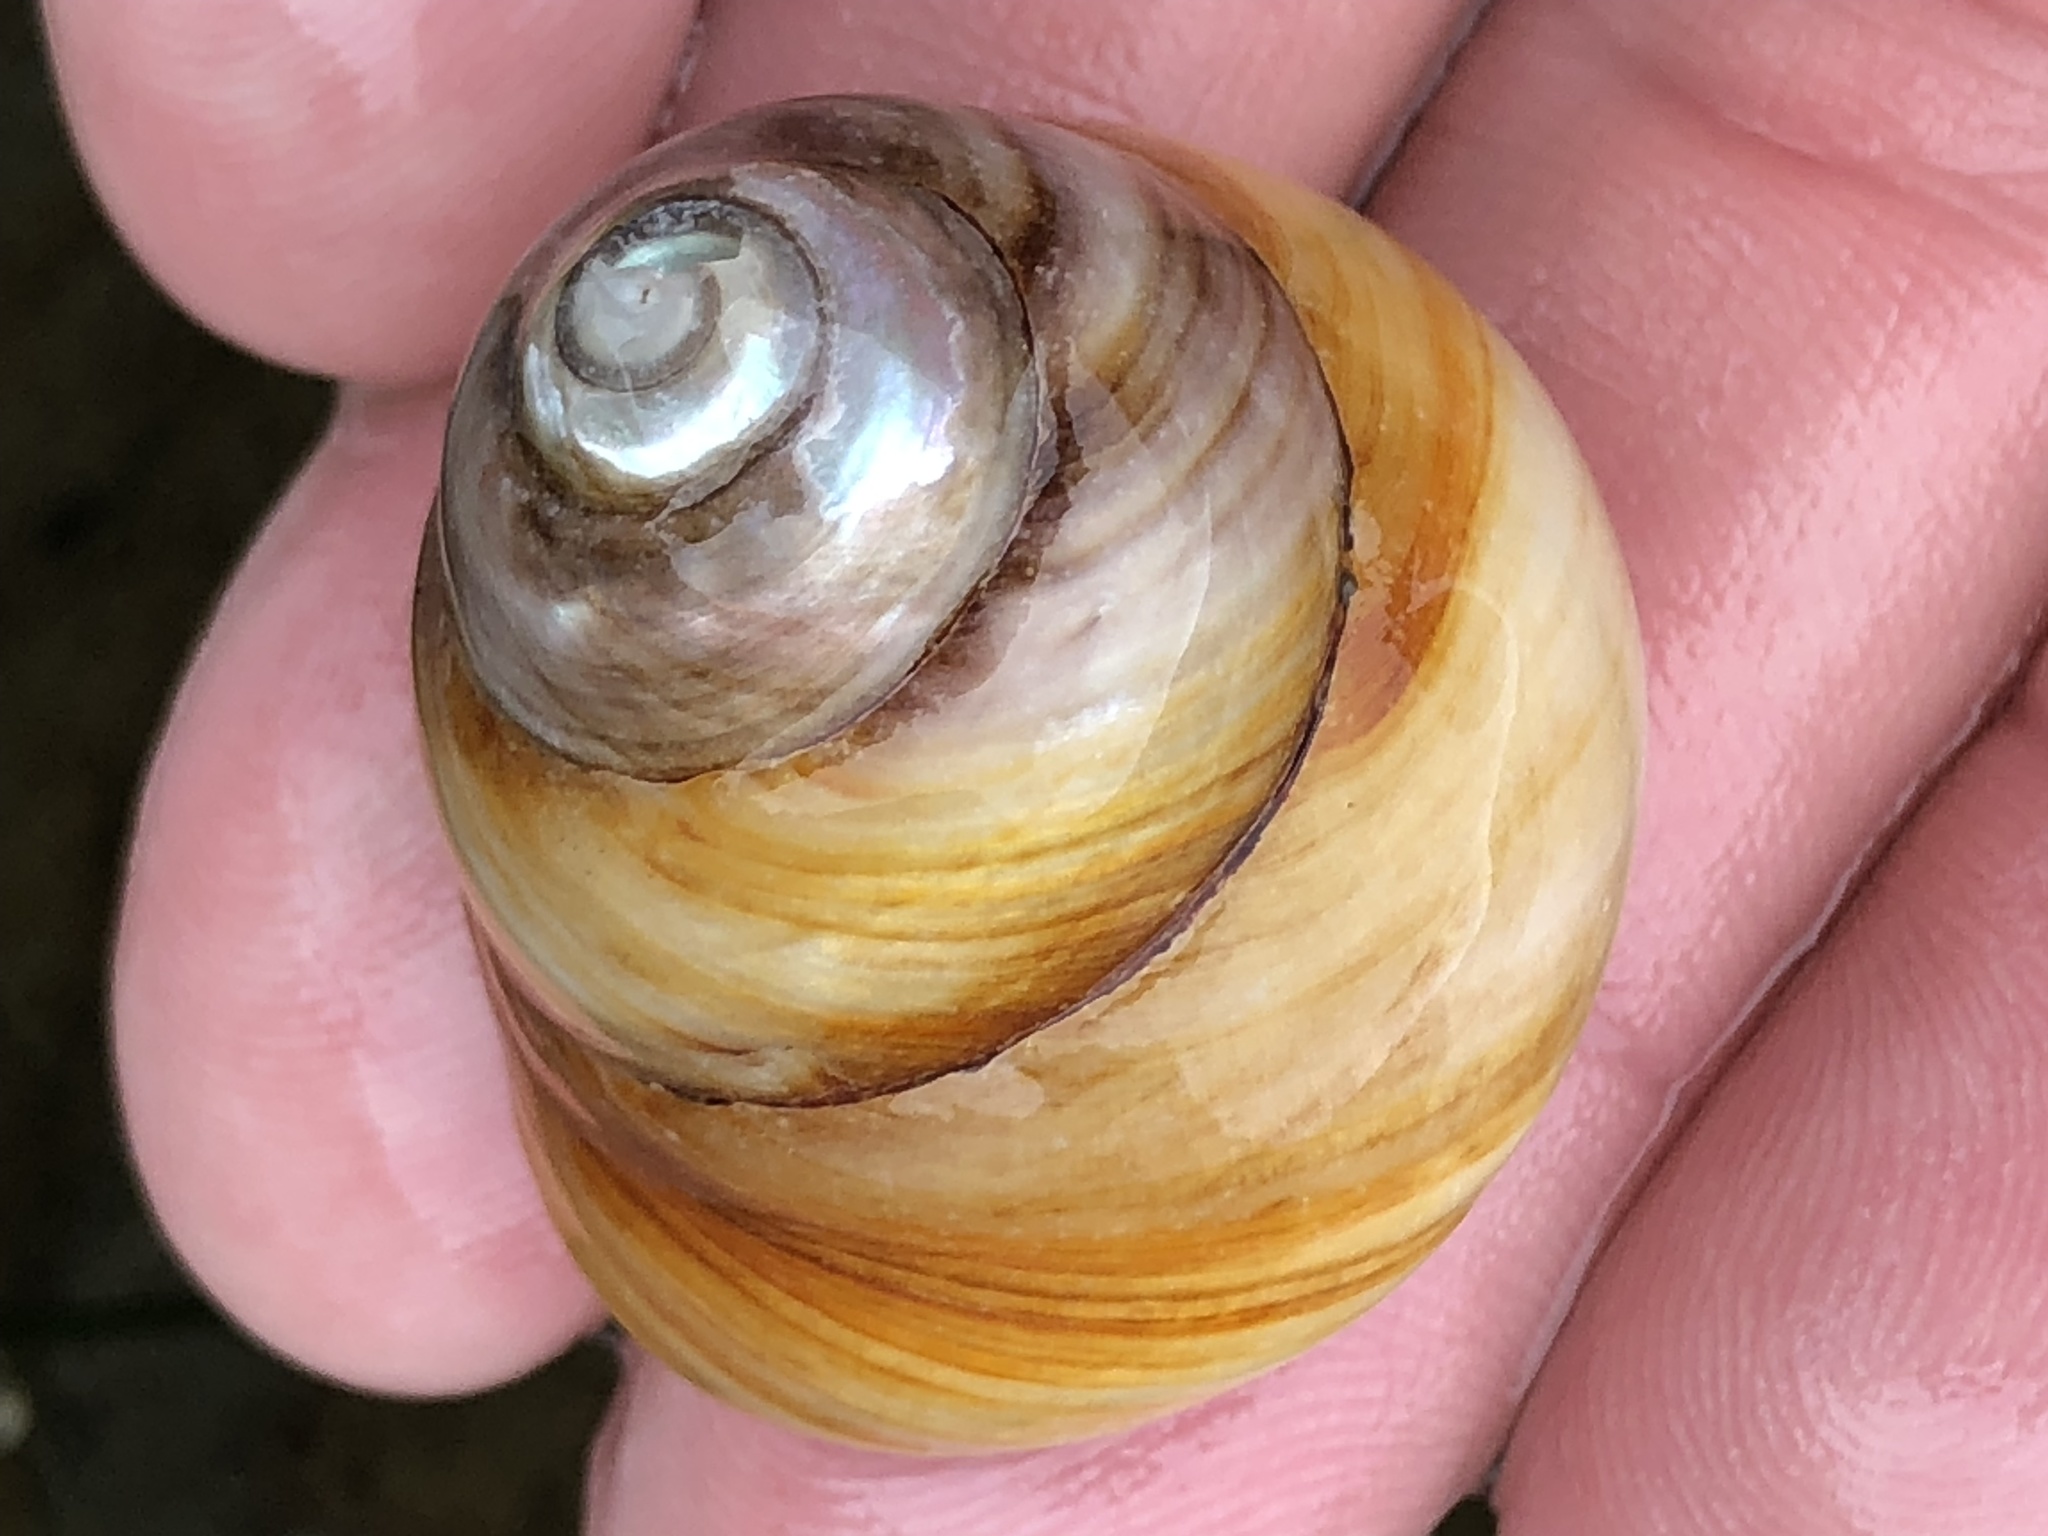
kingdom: Animalia
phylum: Mollusca
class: Gastropoda
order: Trochida
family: Tegulidae
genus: Tegula
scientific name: Tegula brunnea
